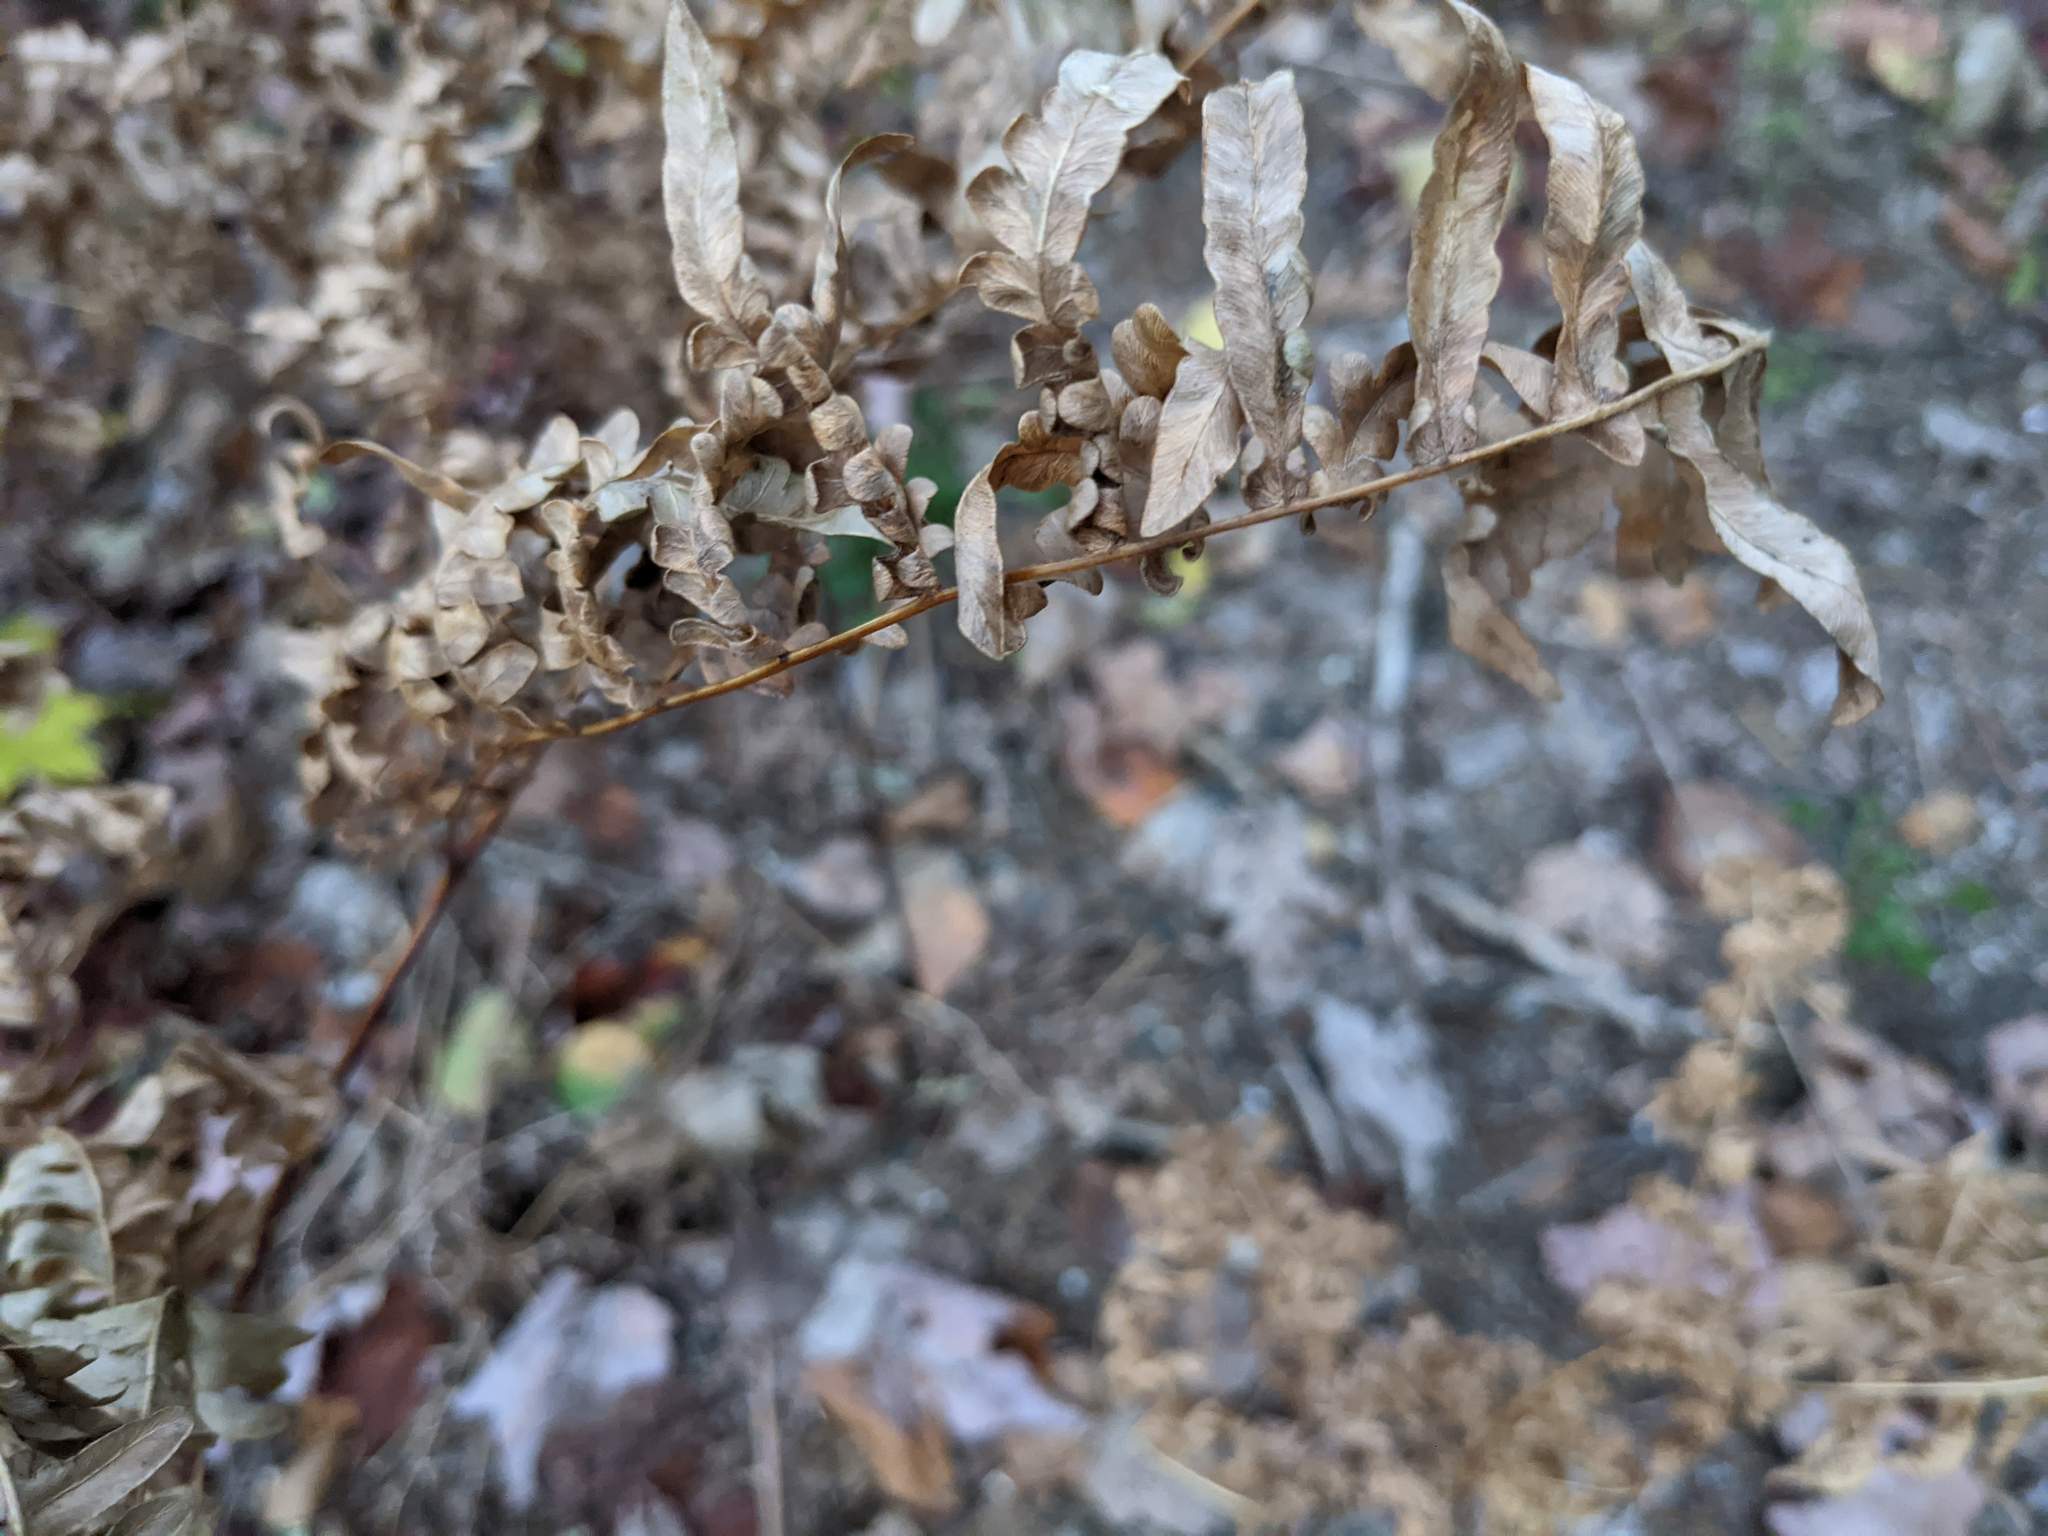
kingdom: Plantae
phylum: Tracheophyta
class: Polypodiopsida
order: Polypodiales
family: Dennstaedtiaceae
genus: Pteridium
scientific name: Pteridium aquilinum
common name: Bracken
